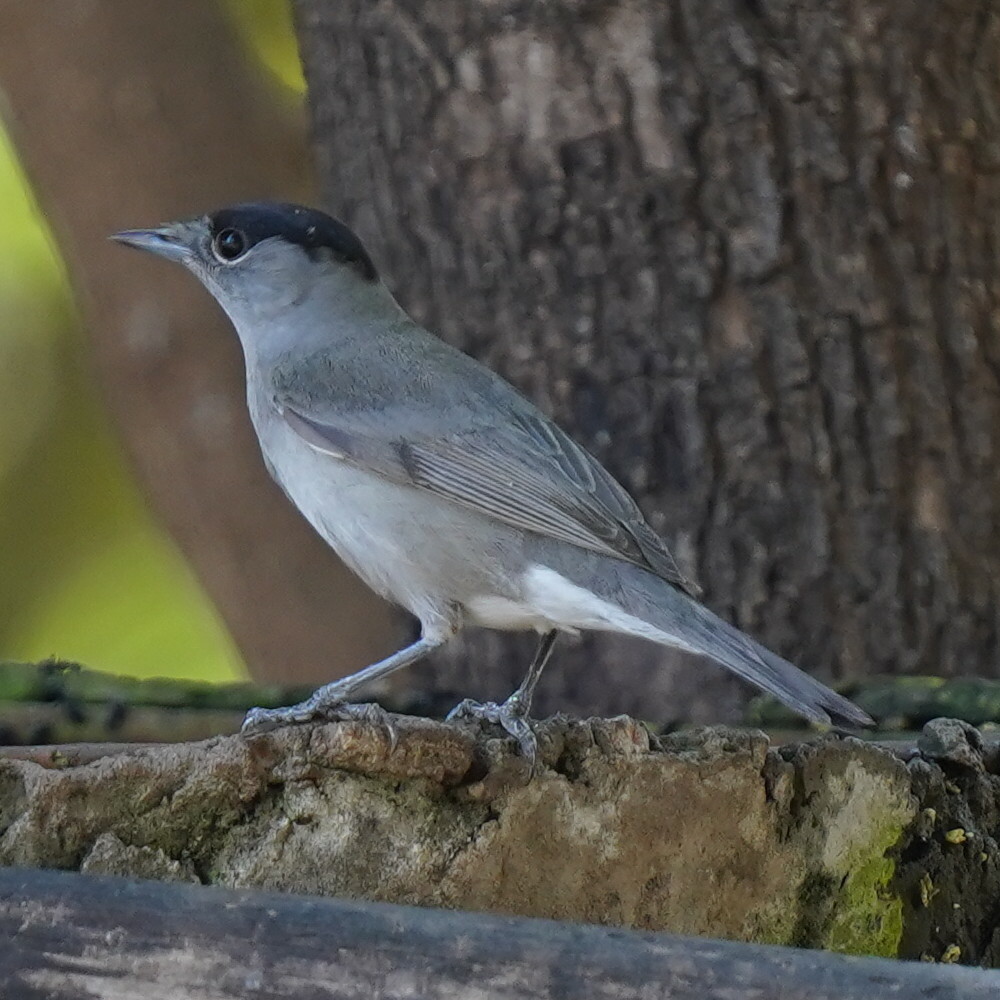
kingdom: Animalia
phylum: Chordata
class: Aves
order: Passeriformes
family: Sylviidae
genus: Sylvia
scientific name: Sylvia atricapilla
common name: Eurasian blackcap
